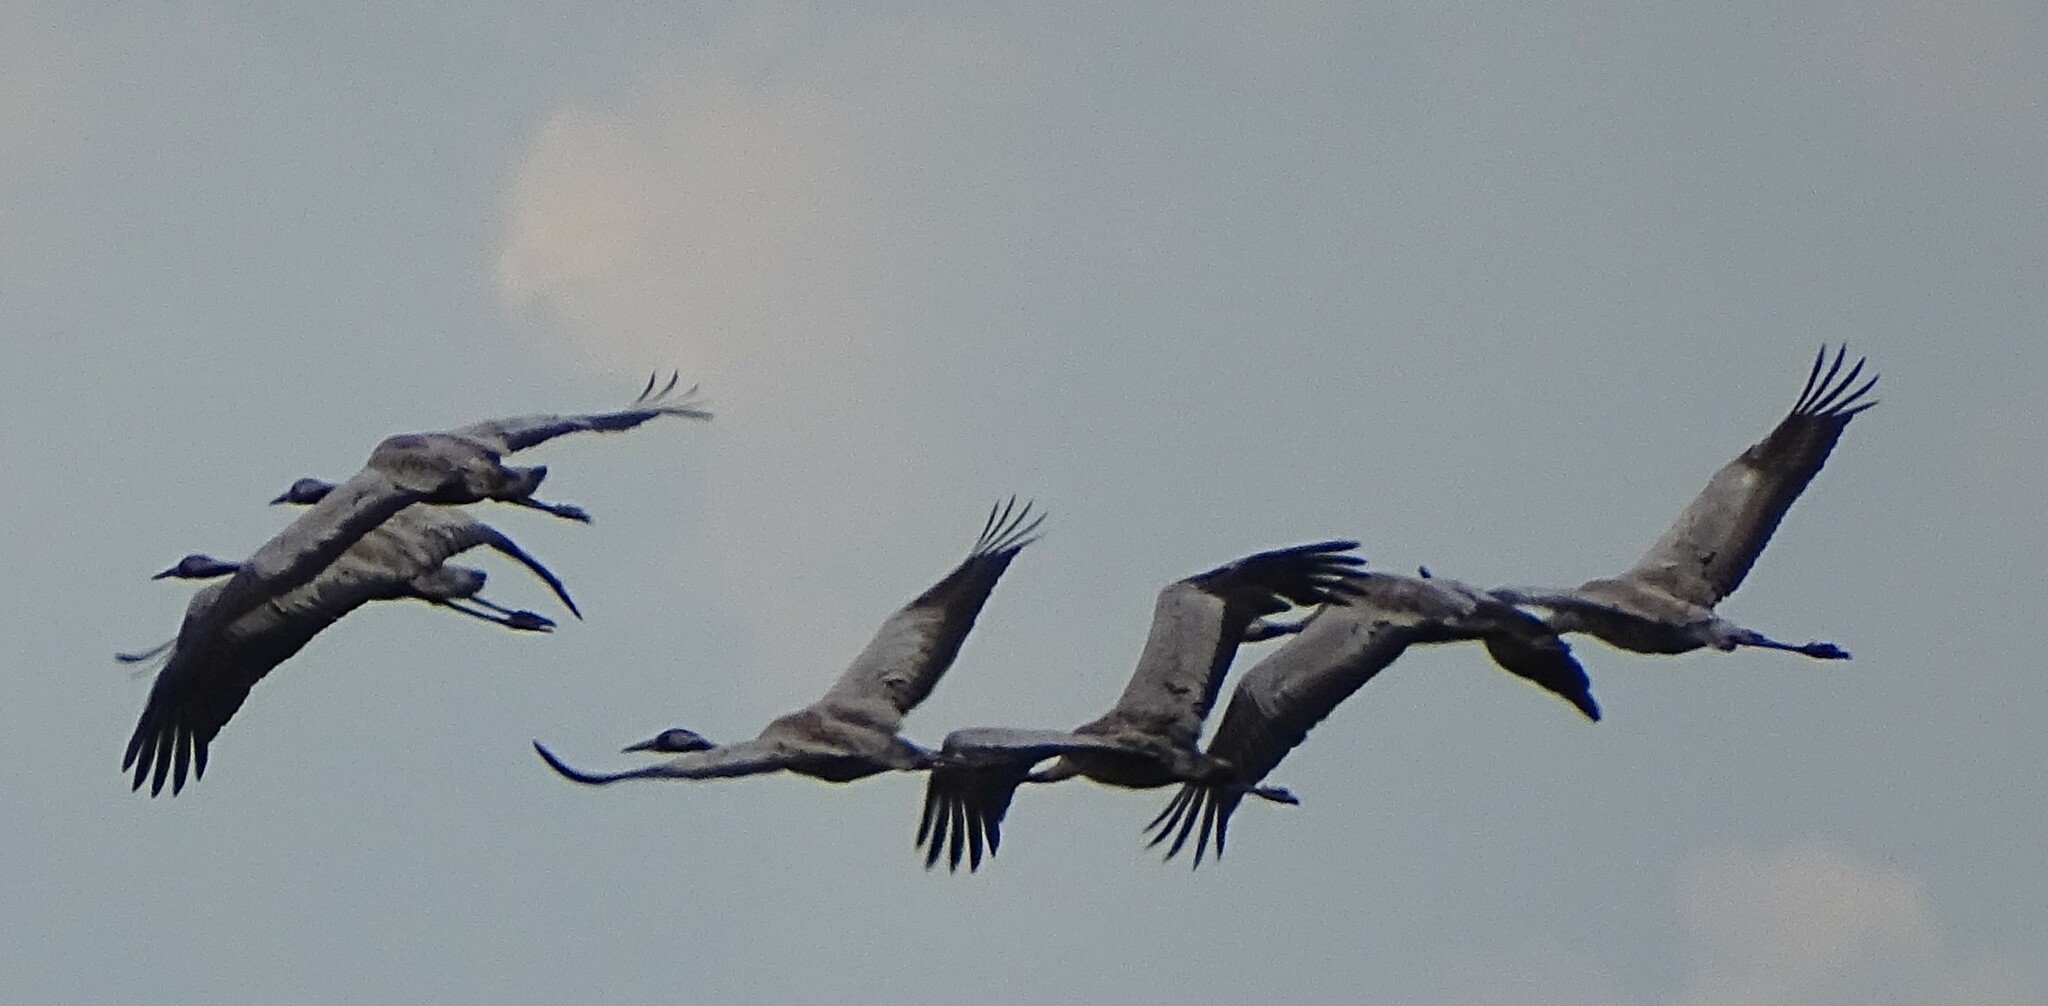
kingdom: Animalia
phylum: Chordata
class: Aves
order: Gruiformes
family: Gruidae
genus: Grus
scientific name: Grus grus
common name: Common crane
